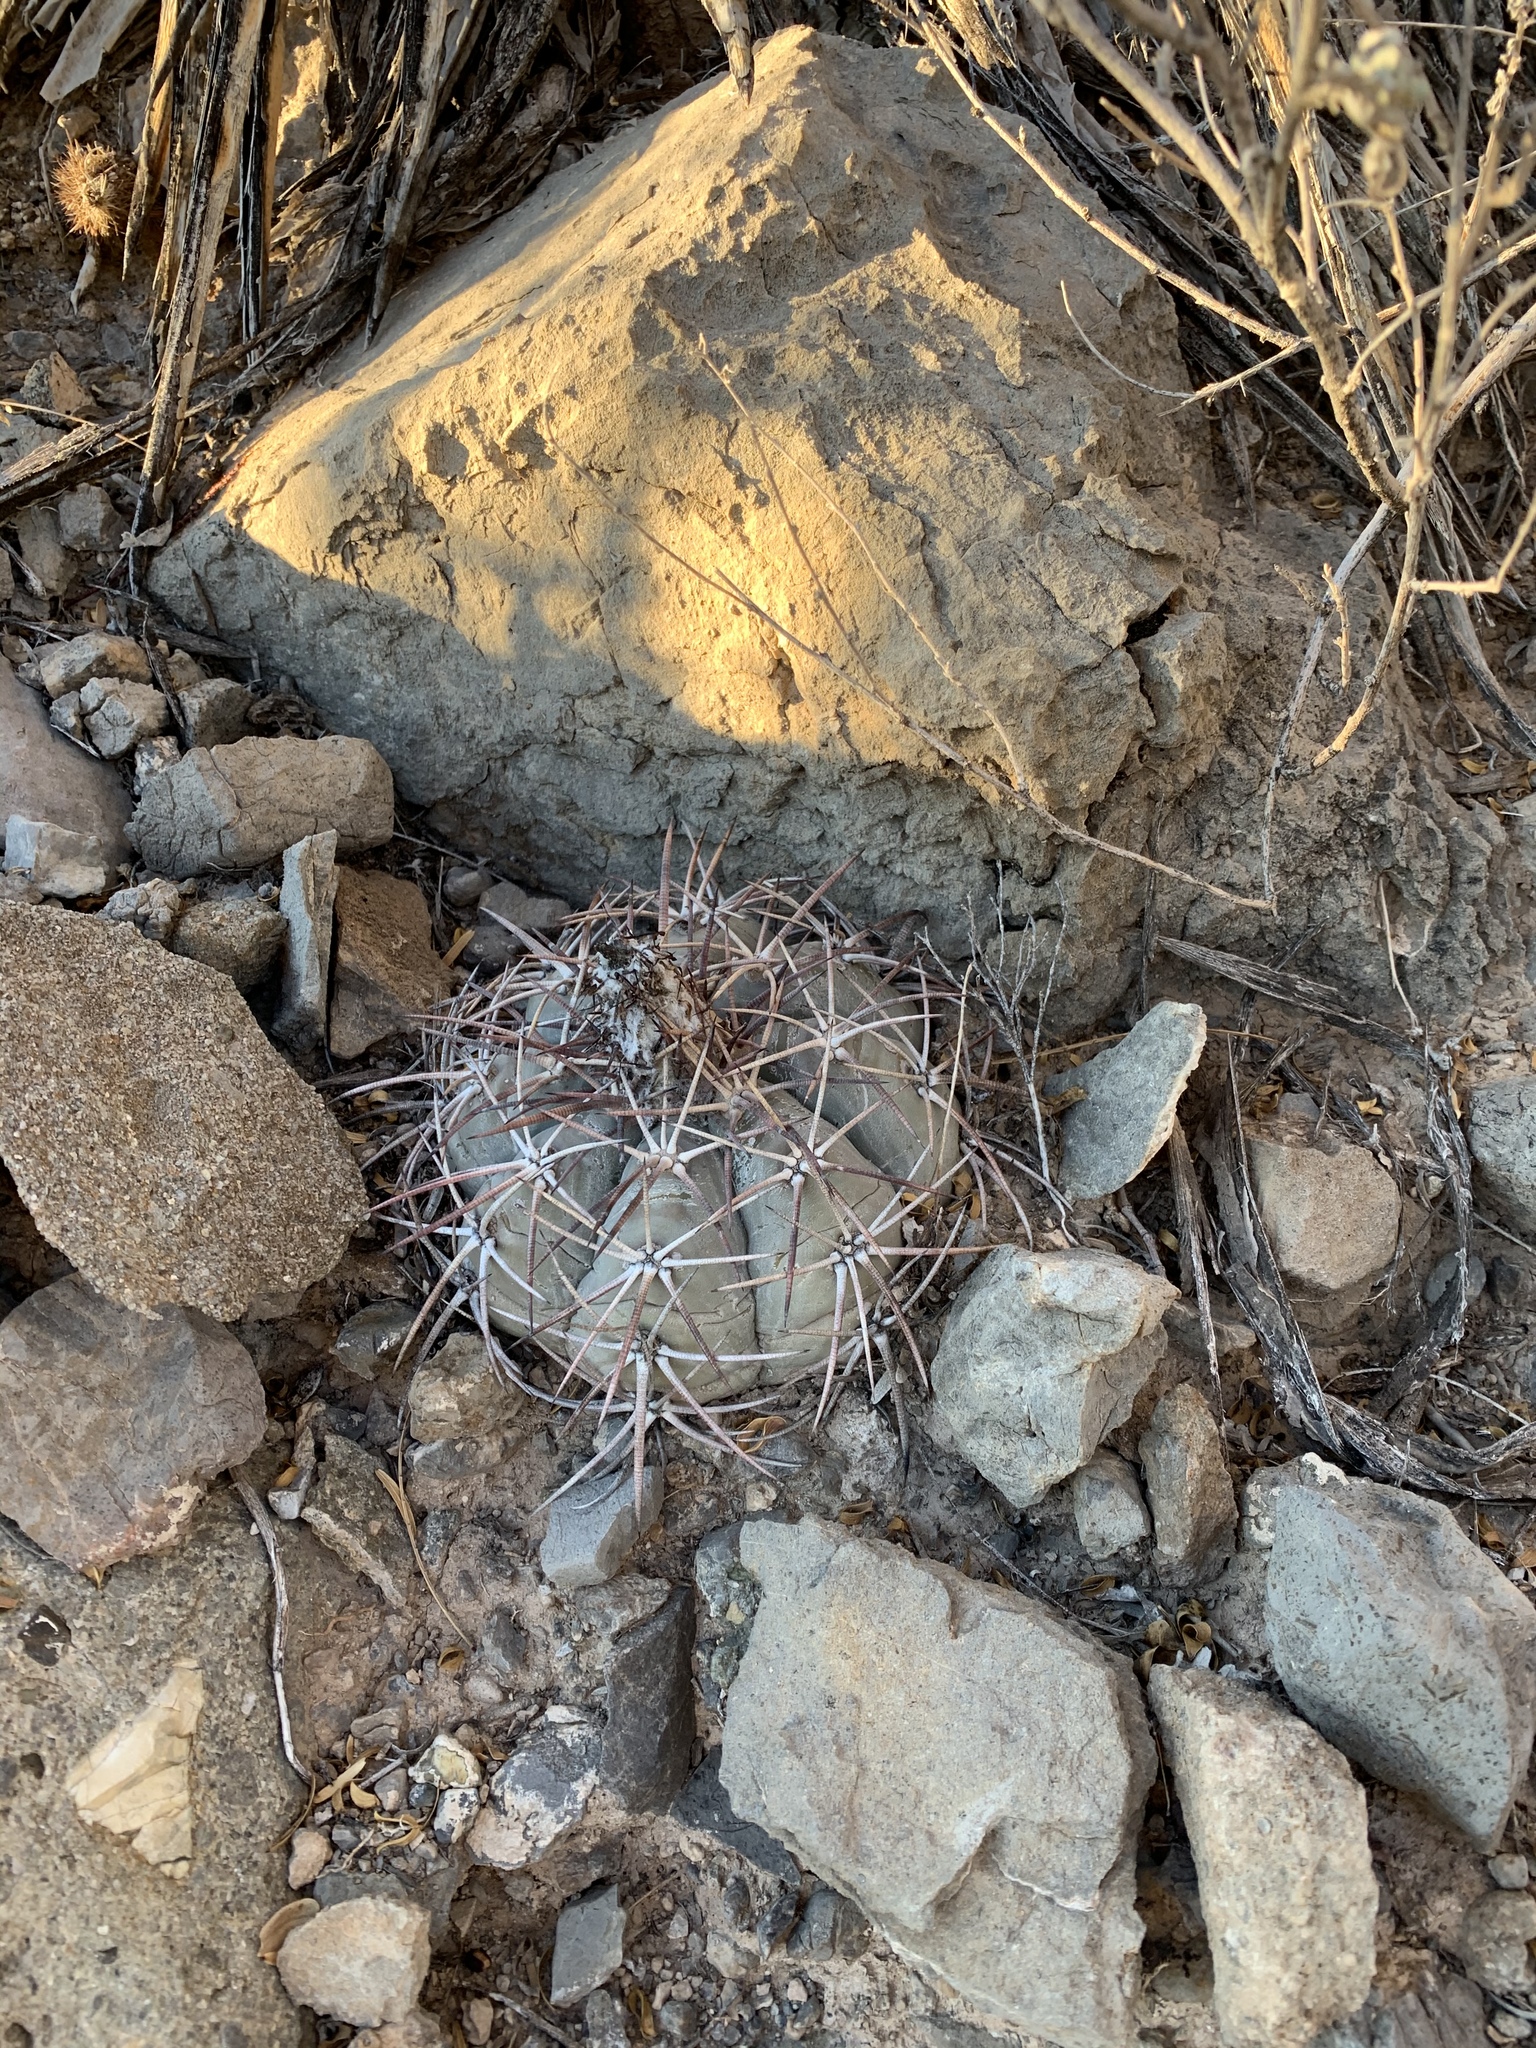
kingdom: Plantae
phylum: Tracheophyta
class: Magnoliopsida
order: Caryophyllales
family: Cactaceae
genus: Echinocactus
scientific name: Echinocactus horizonthalonius
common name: Devilshead
